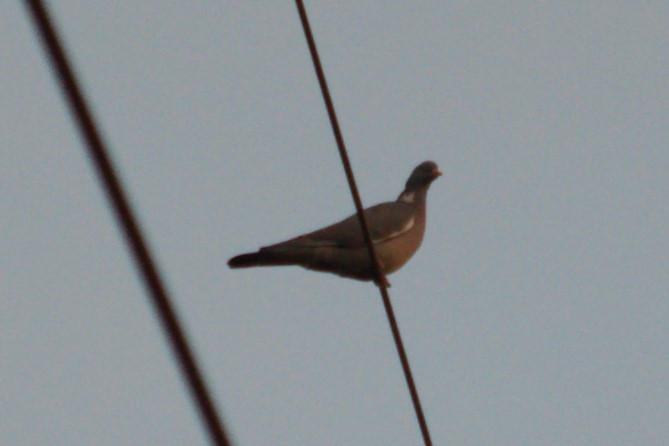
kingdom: Animalia
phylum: Chordata
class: Aves
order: Columbiformes
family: Columbidae
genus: Columba
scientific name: Columba palumbus
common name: Common wood pigeon
